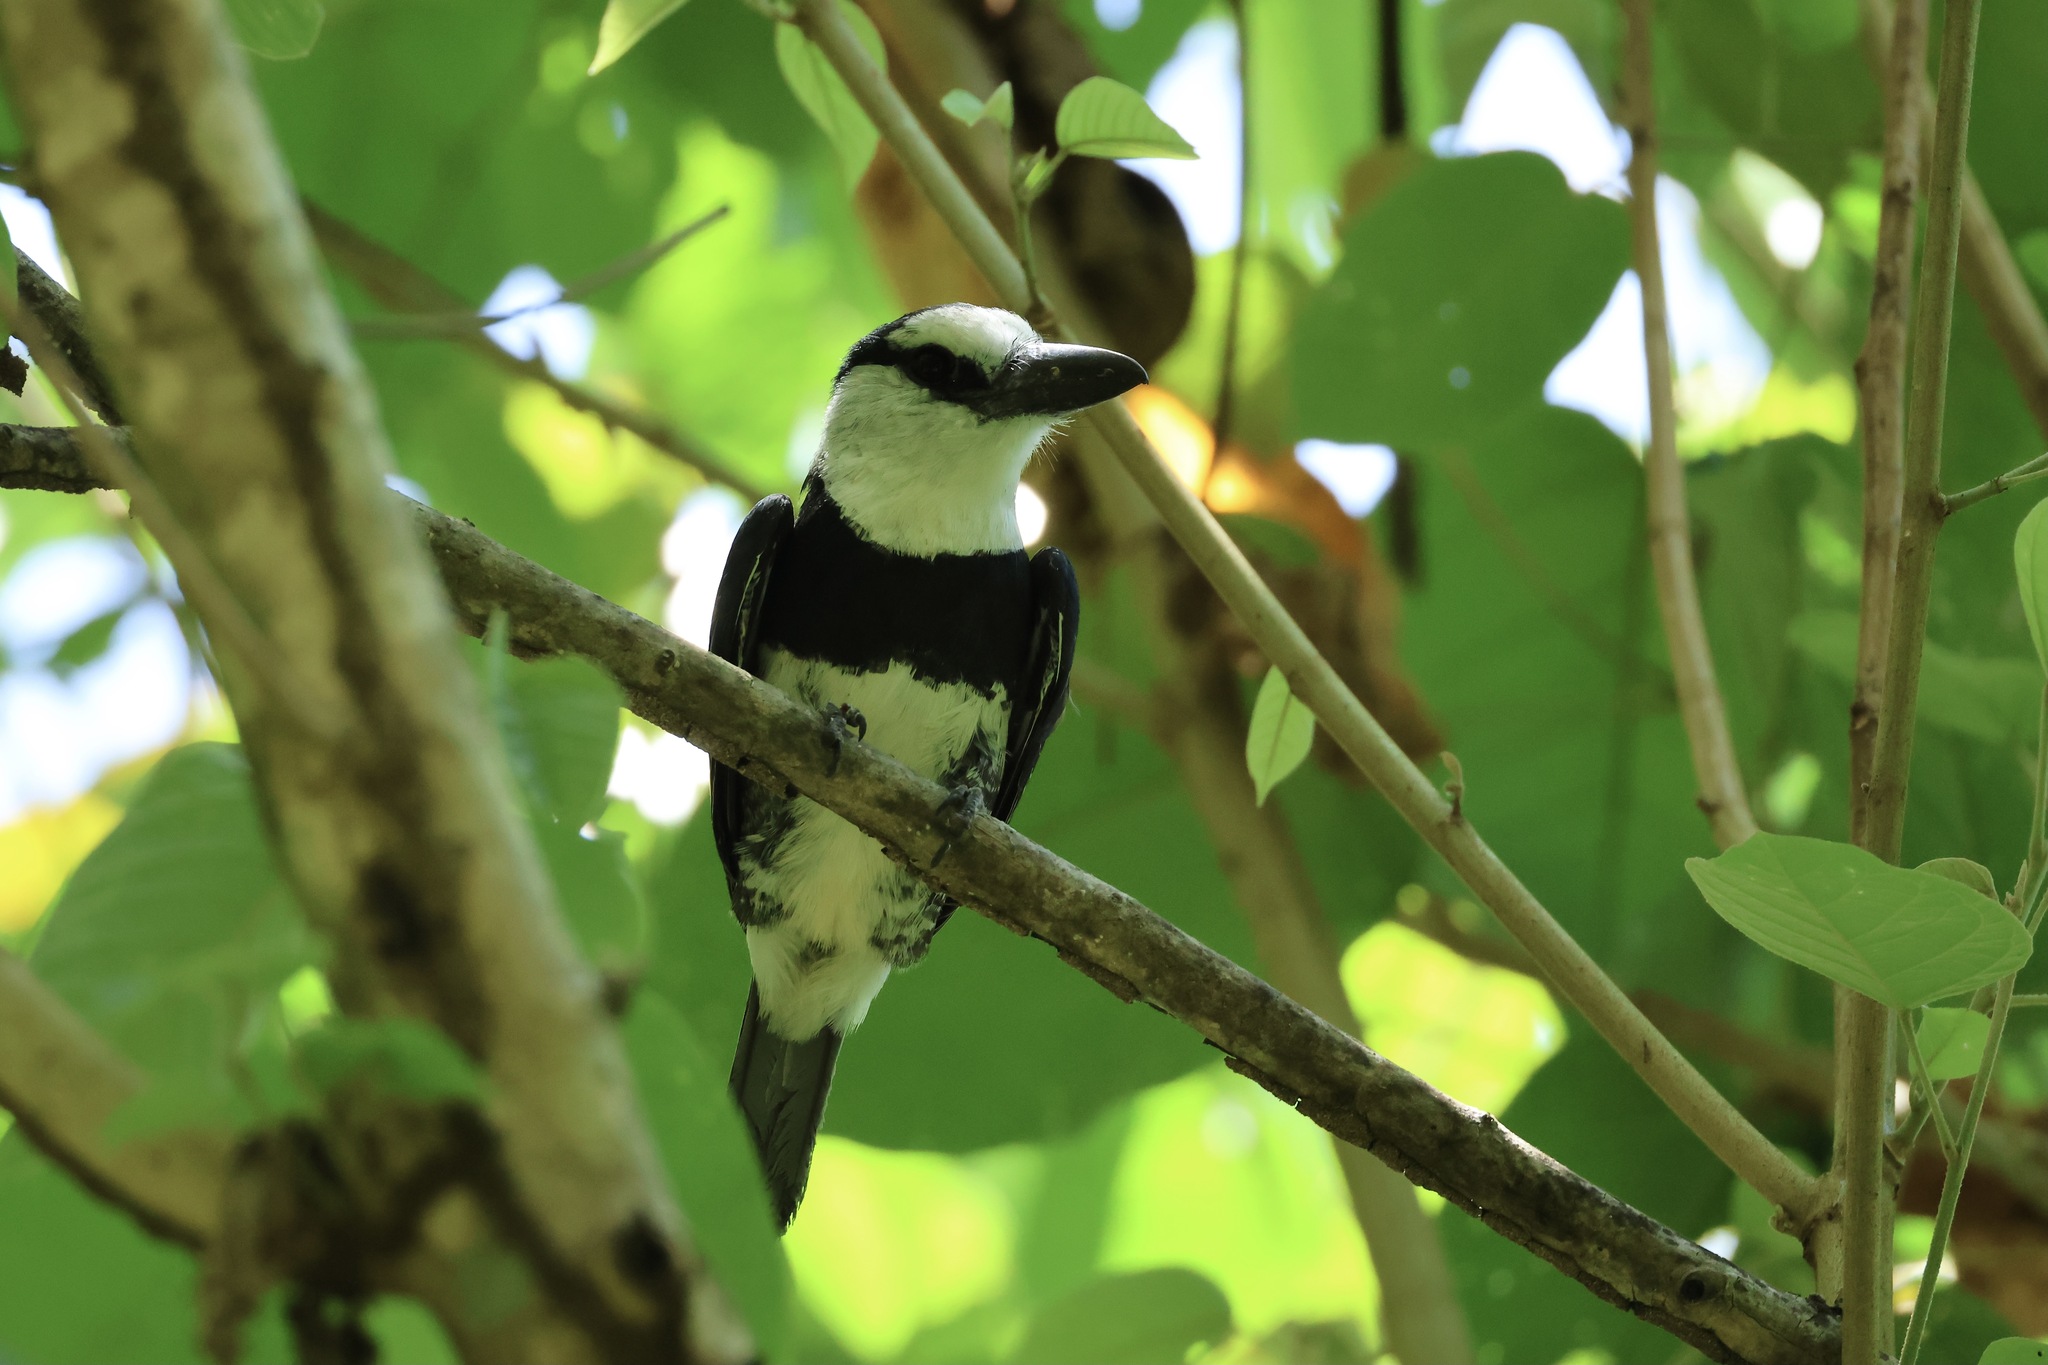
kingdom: Animalia
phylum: Chordata
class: Aves
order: Piciformes
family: Bucconidae
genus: Notharchus
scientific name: Notharchus hyperrhynchus
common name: White-necked puffbird
